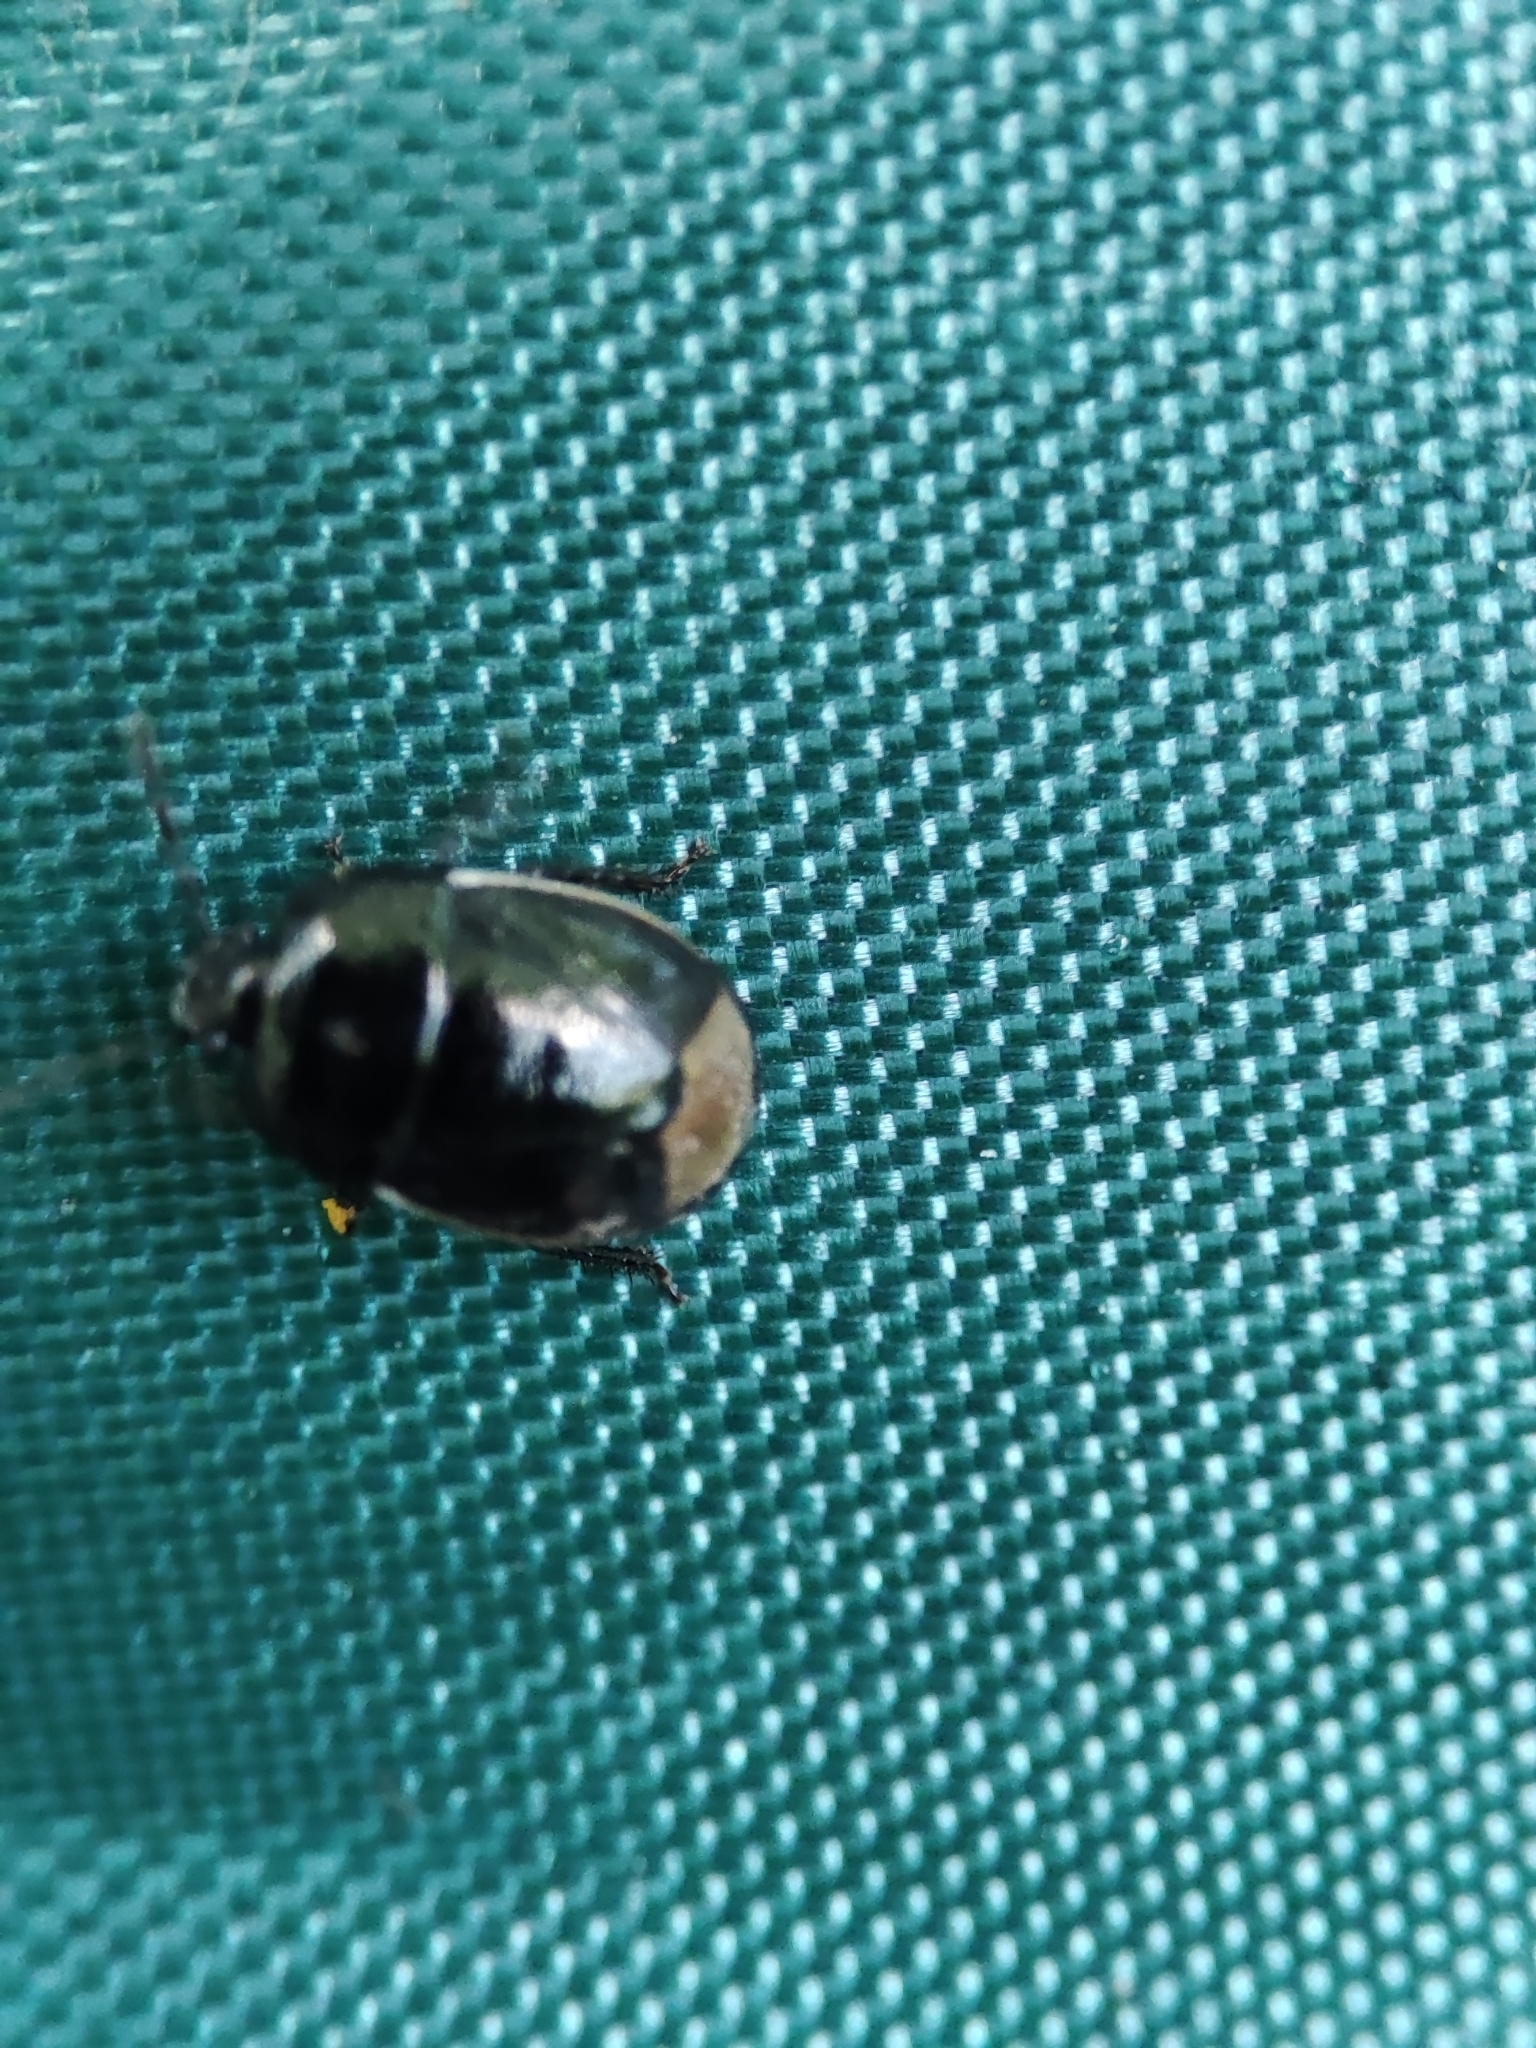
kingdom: Animalia
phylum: Arthropoda
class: Insecta
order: Hemiptera
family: Cydnidae
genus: Legnotus
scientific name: Legnotus limbosus
